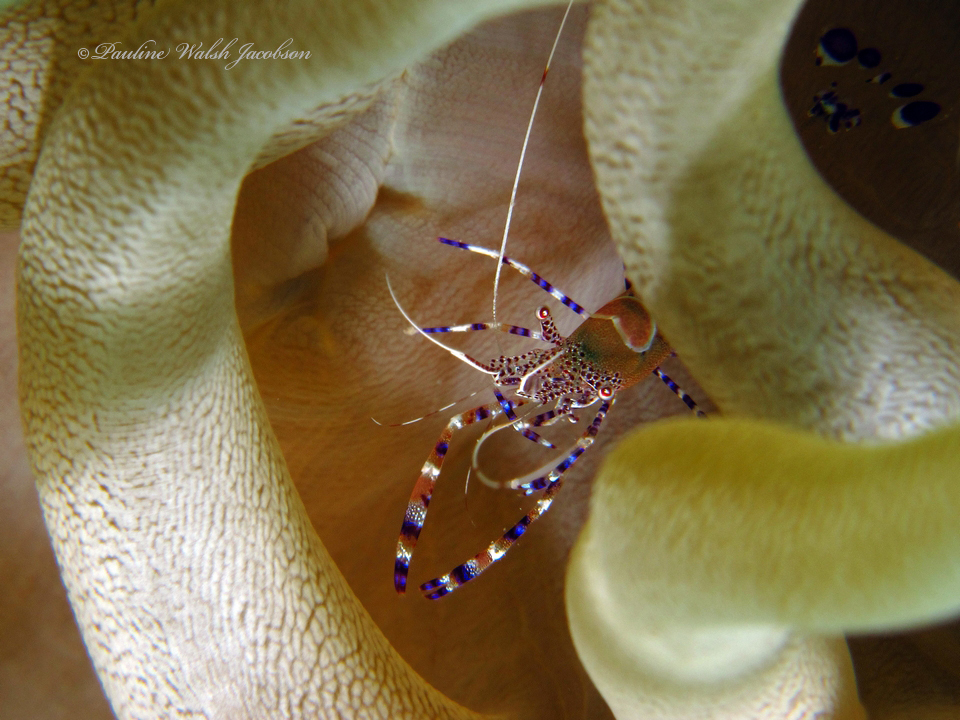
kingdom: Animalia
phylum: Arthropoda
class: Malacostraca
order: Decapoda
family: Palaemonidae
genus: Periclimenes
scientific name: Periclimenes yucatanicus
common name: Spotted cleaning shrimp
